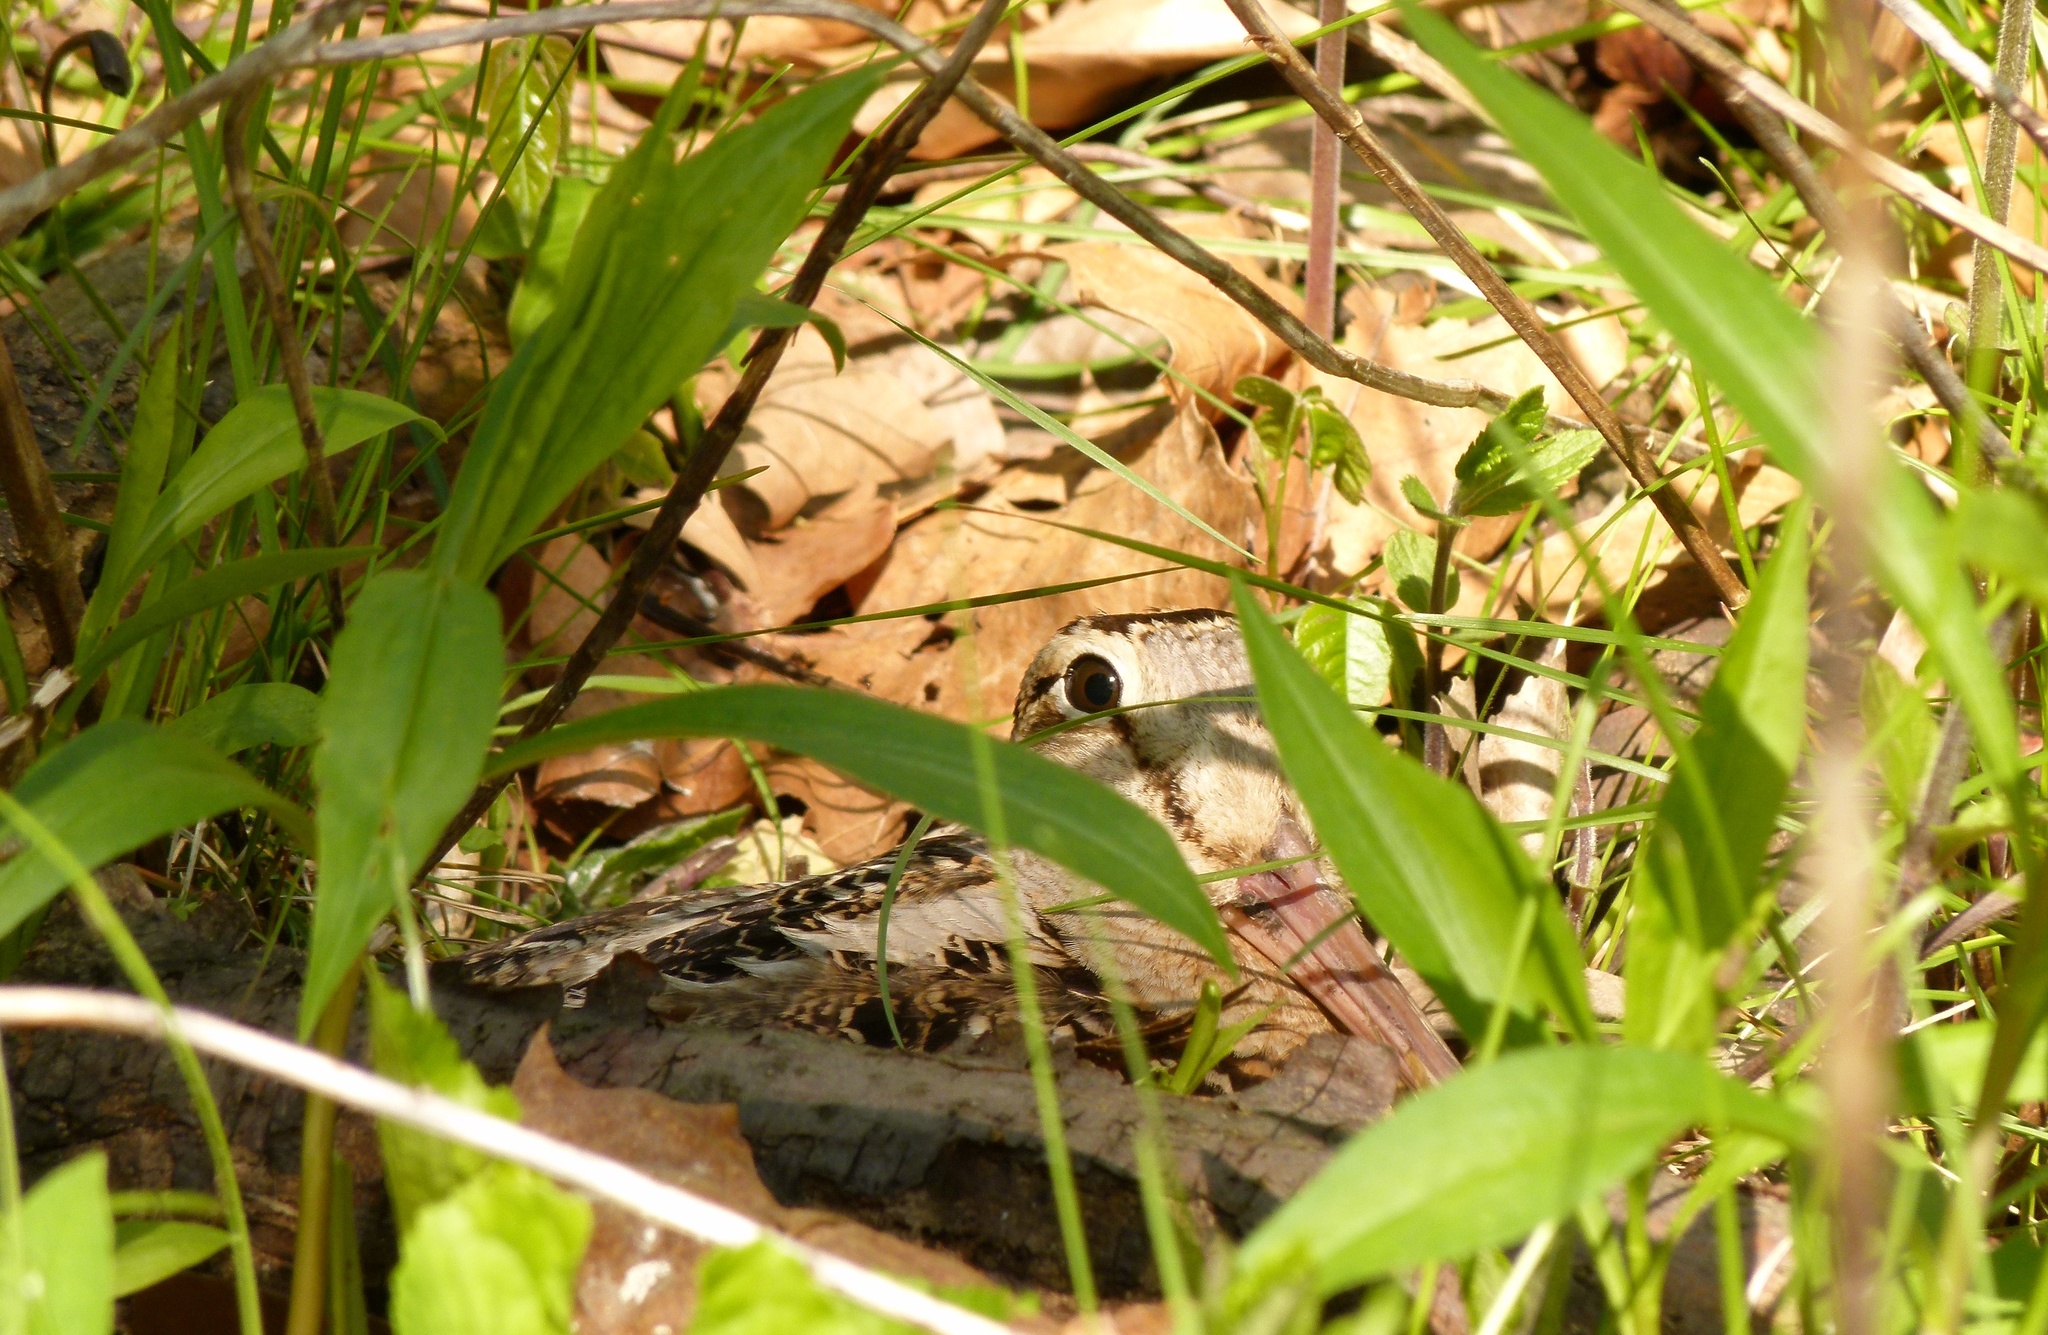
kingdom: Animalia
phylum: Chordata
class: Aves
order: Charadriiformes
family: Scolopacidae
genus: Scolopax
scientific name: Scolopax minor
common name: American woodcock
